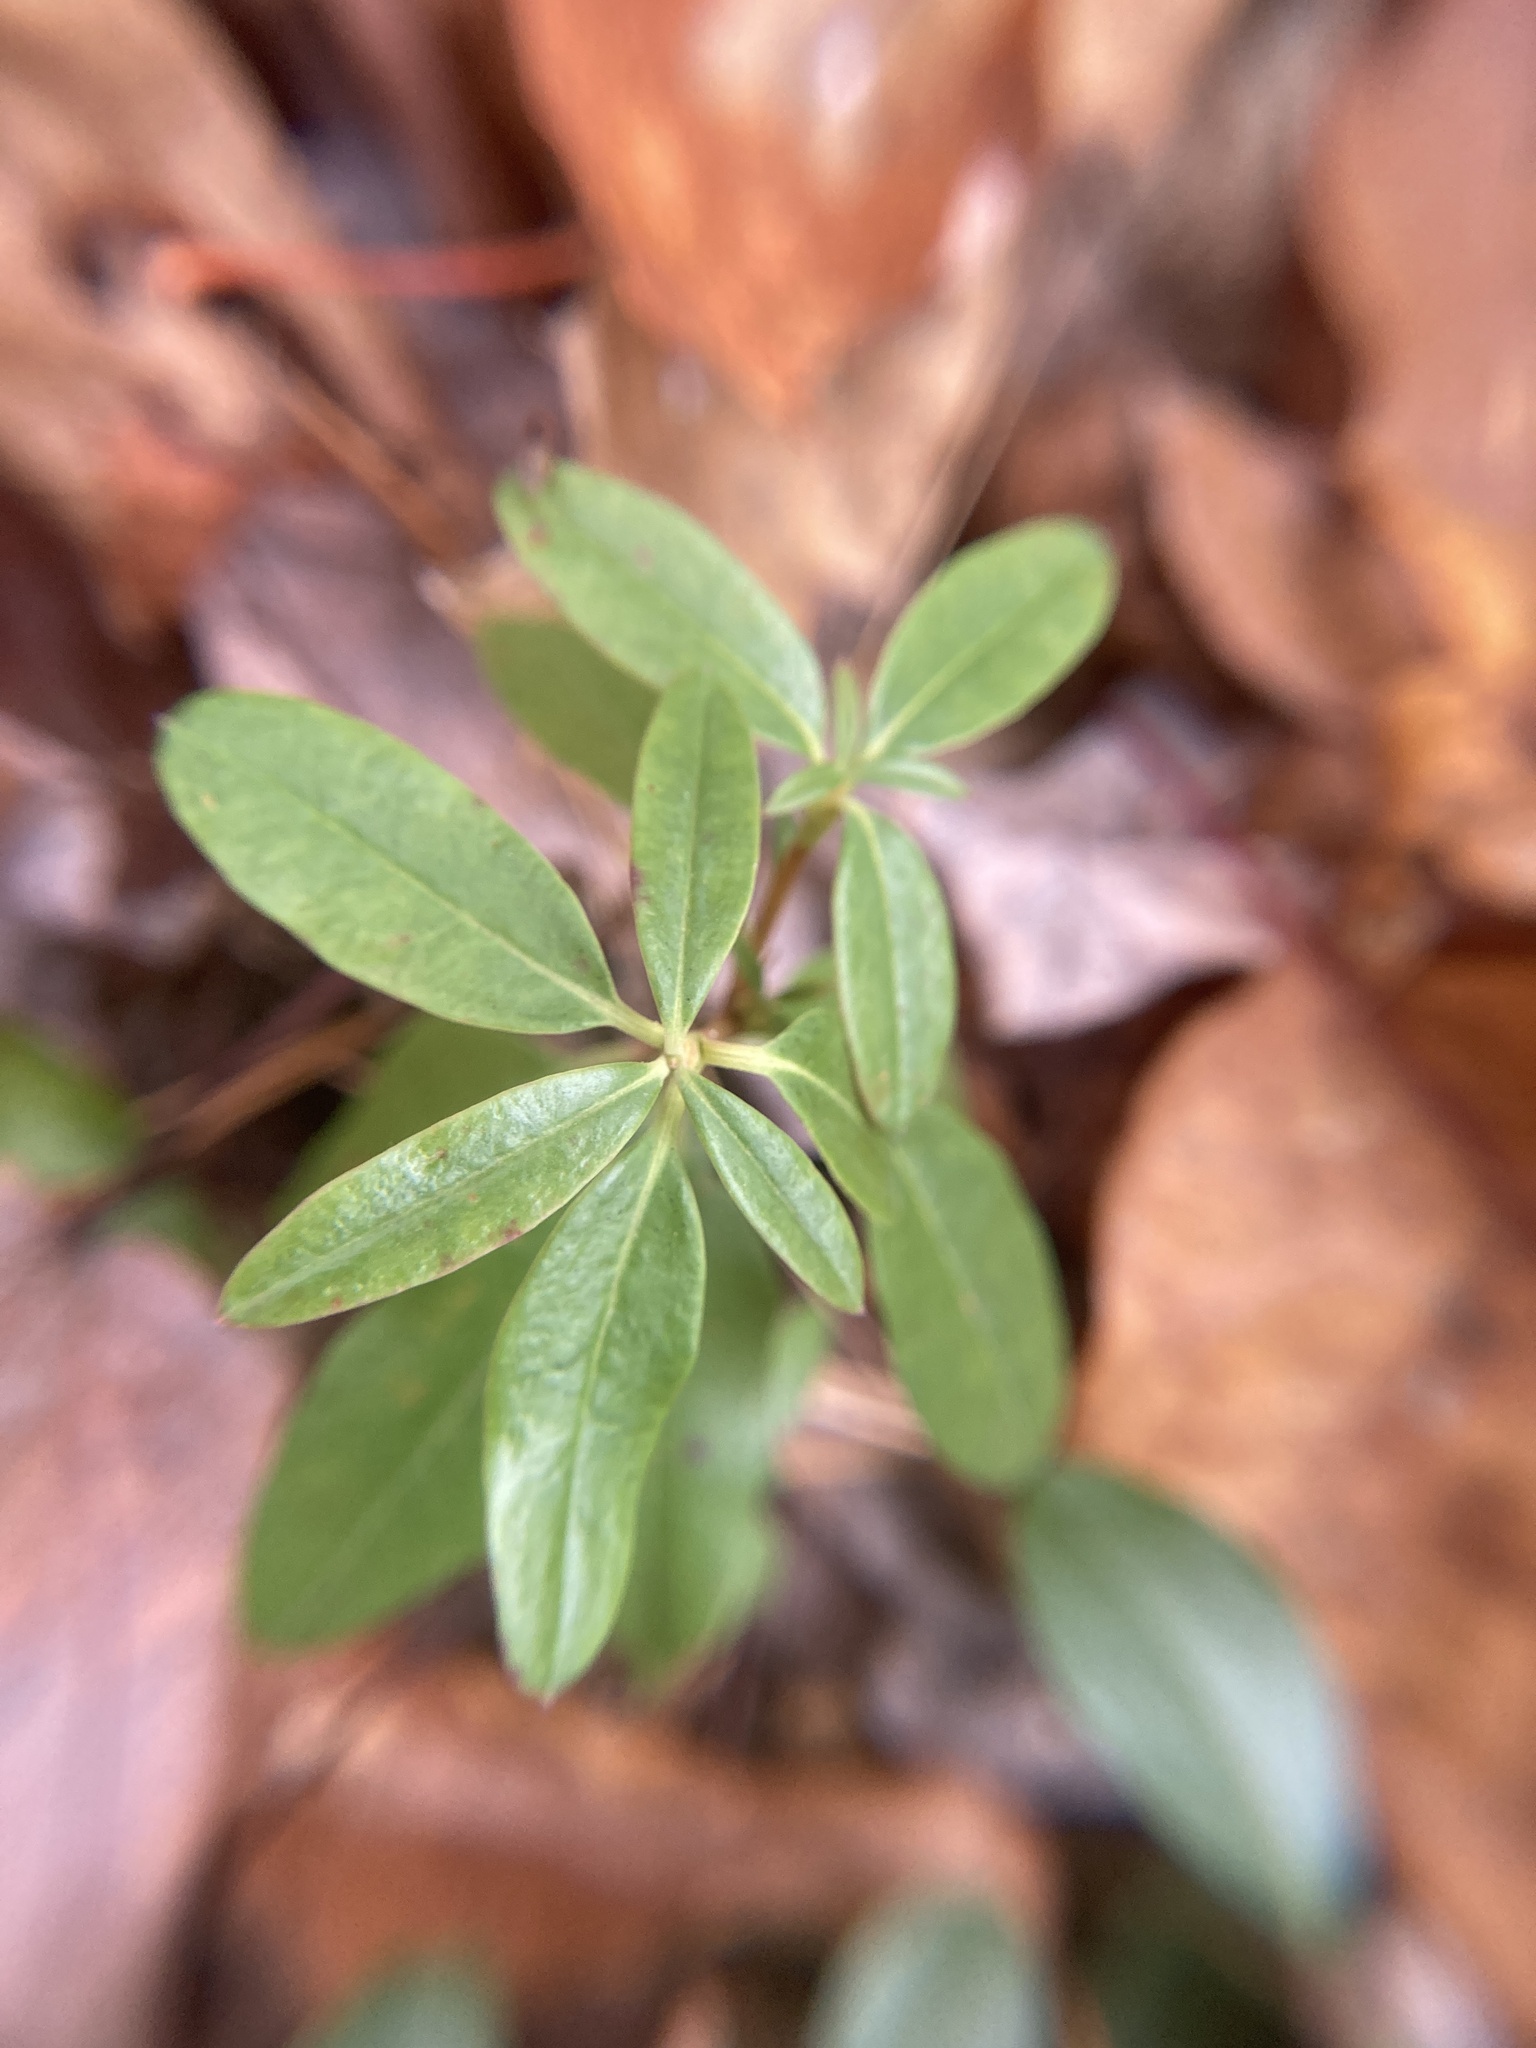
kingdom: Plantae
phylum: Tracheophyta
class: Magnoliopsida
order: Ericales
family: Ericaceae
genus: Kalmia
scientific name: Kalmia angustifolia
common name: Sheep-laurel
